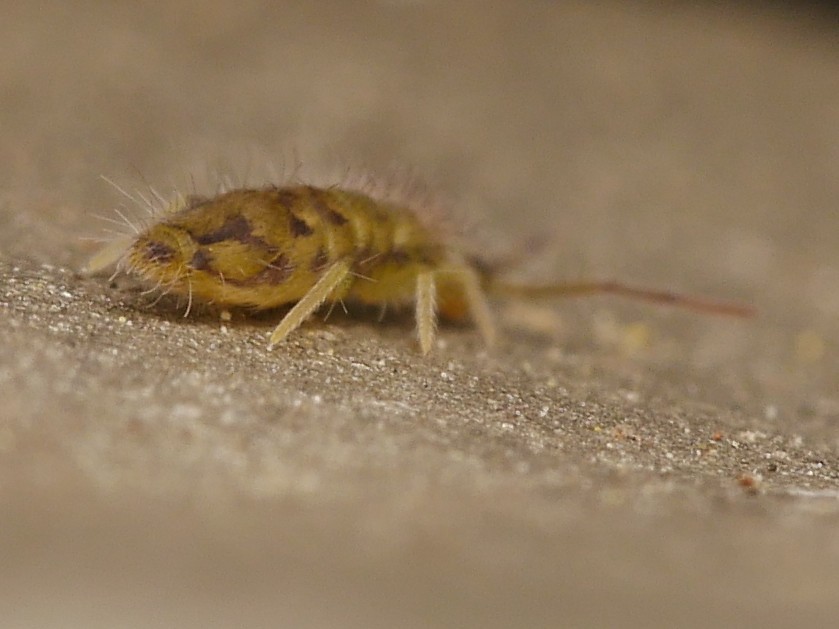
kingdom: Animalia
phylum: Arthropoda
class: Collembola
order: Entomobryomorpha
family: Entomobryidae
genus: Entomobrya
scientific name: Entomobrya nivalis
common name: Cosmopolitan springtail
